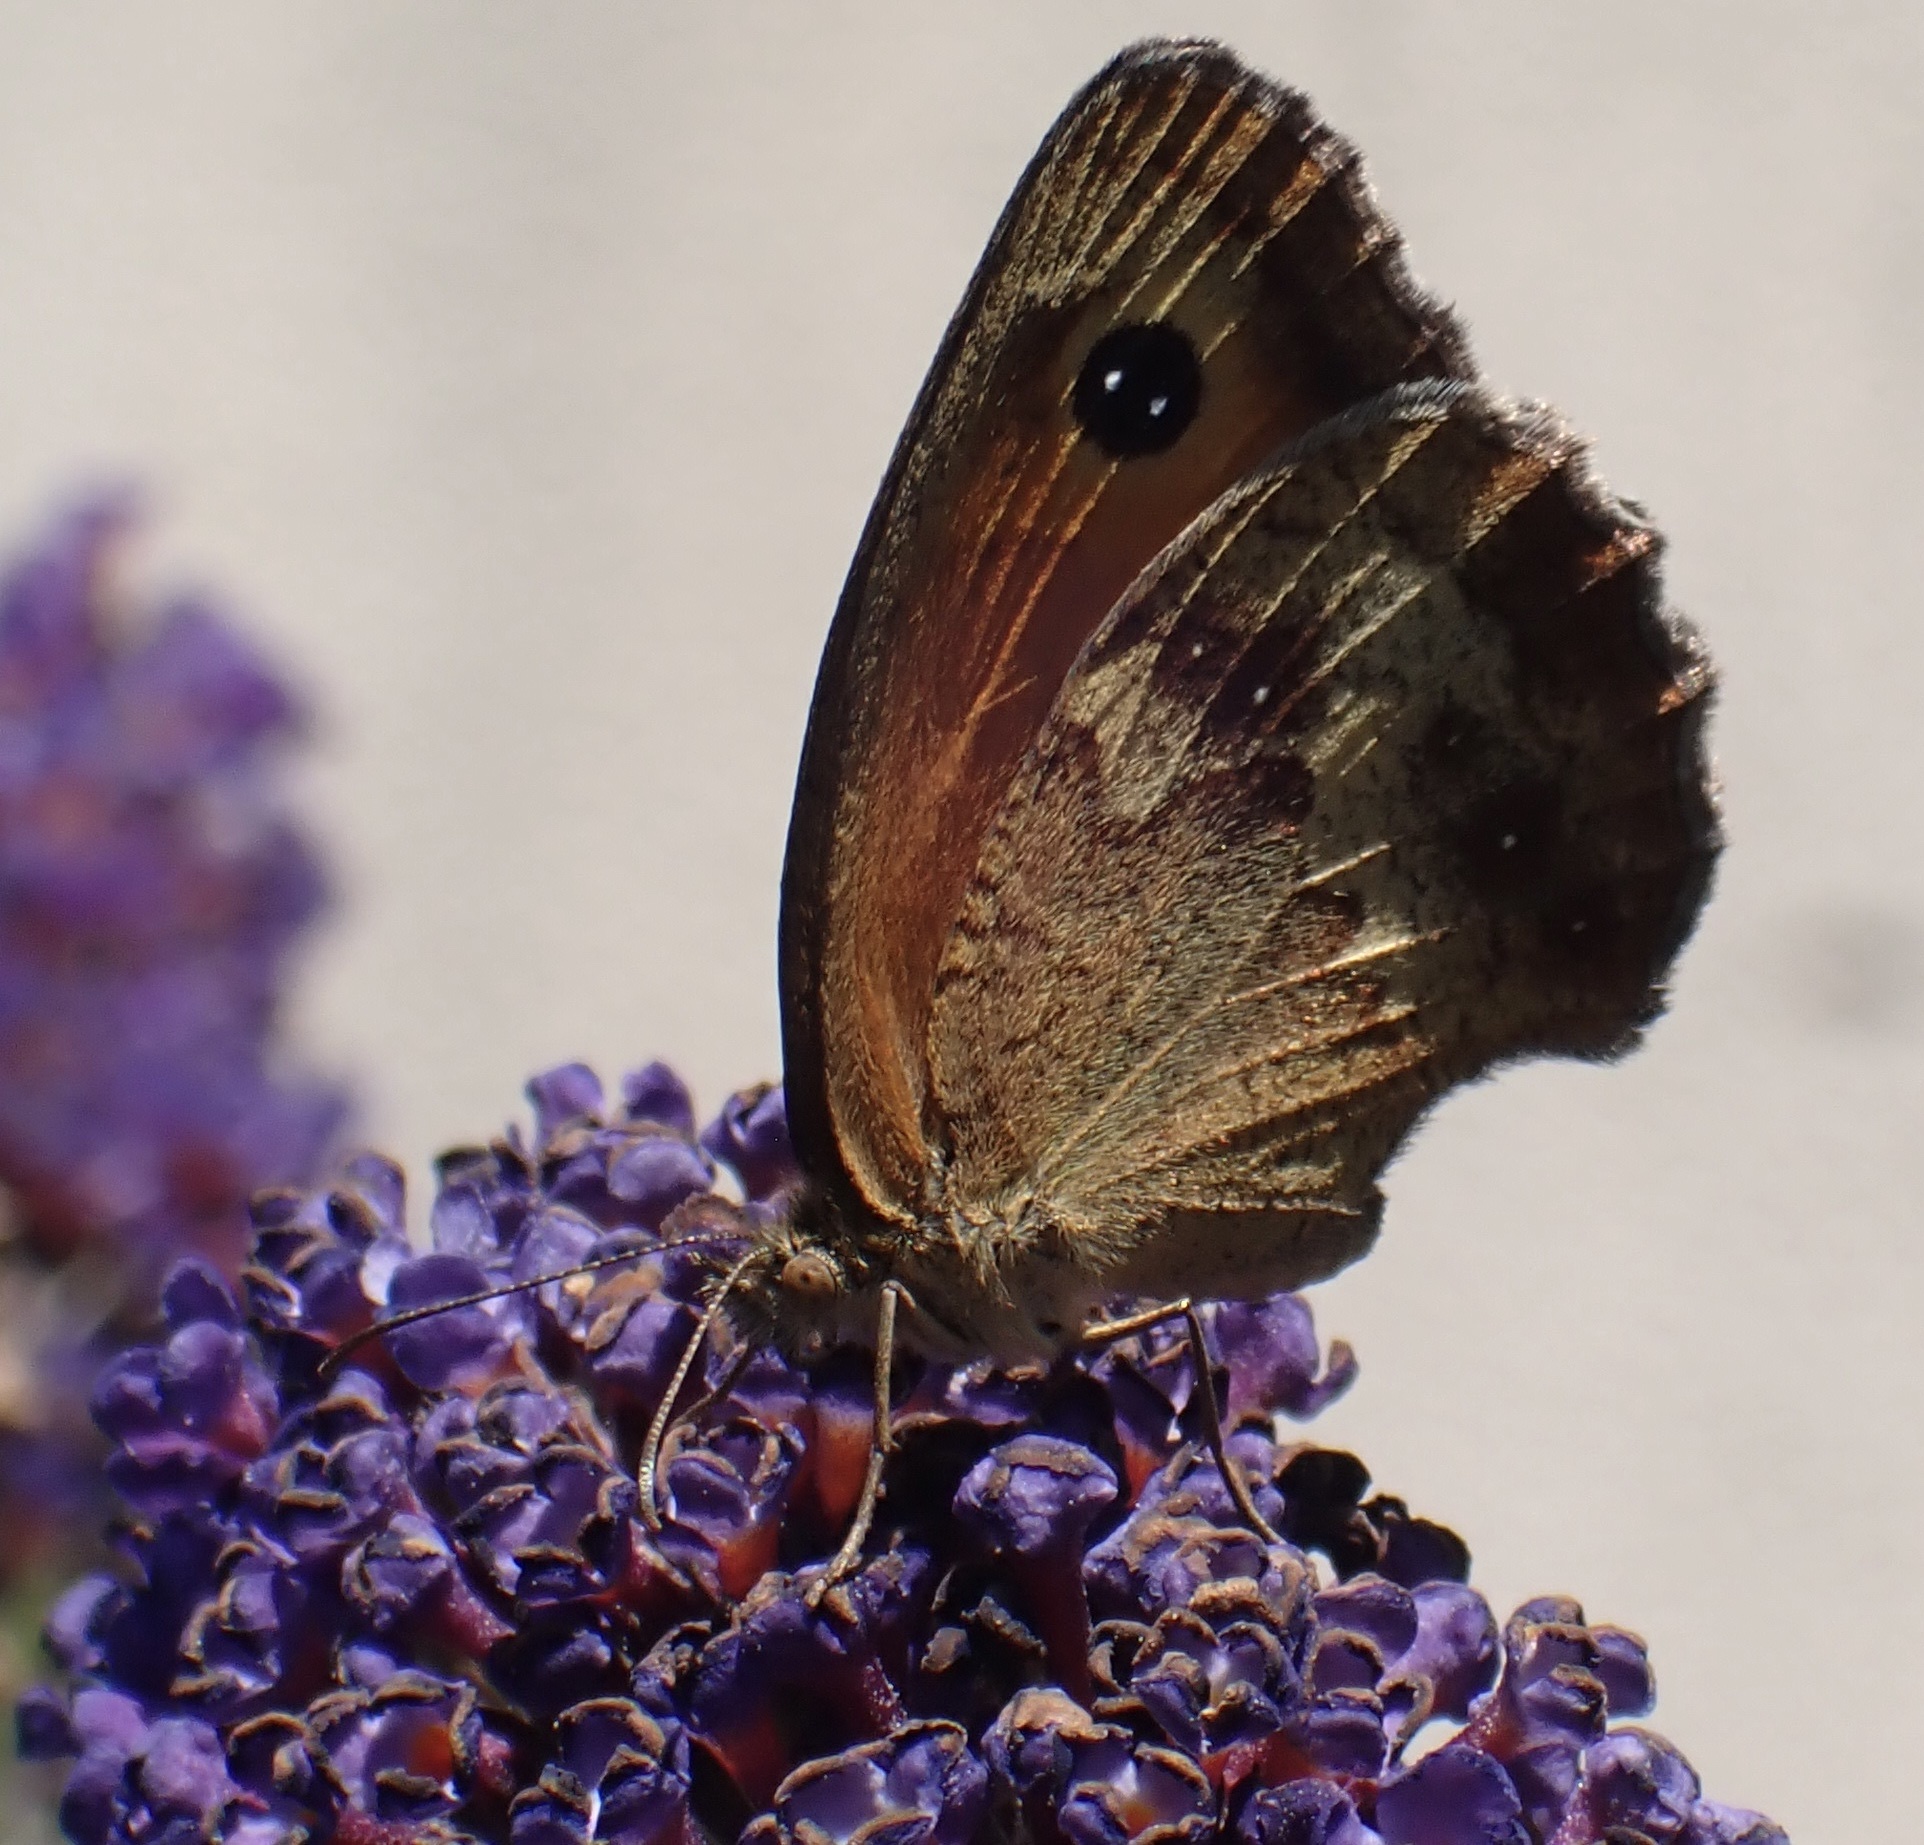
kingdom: Animalia
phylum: Arthropoda
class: Insecta
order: Lepidoptera
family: Nymphalidae
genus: Pyronia
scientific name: Pyronia tithonus
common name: Gatekeeper
